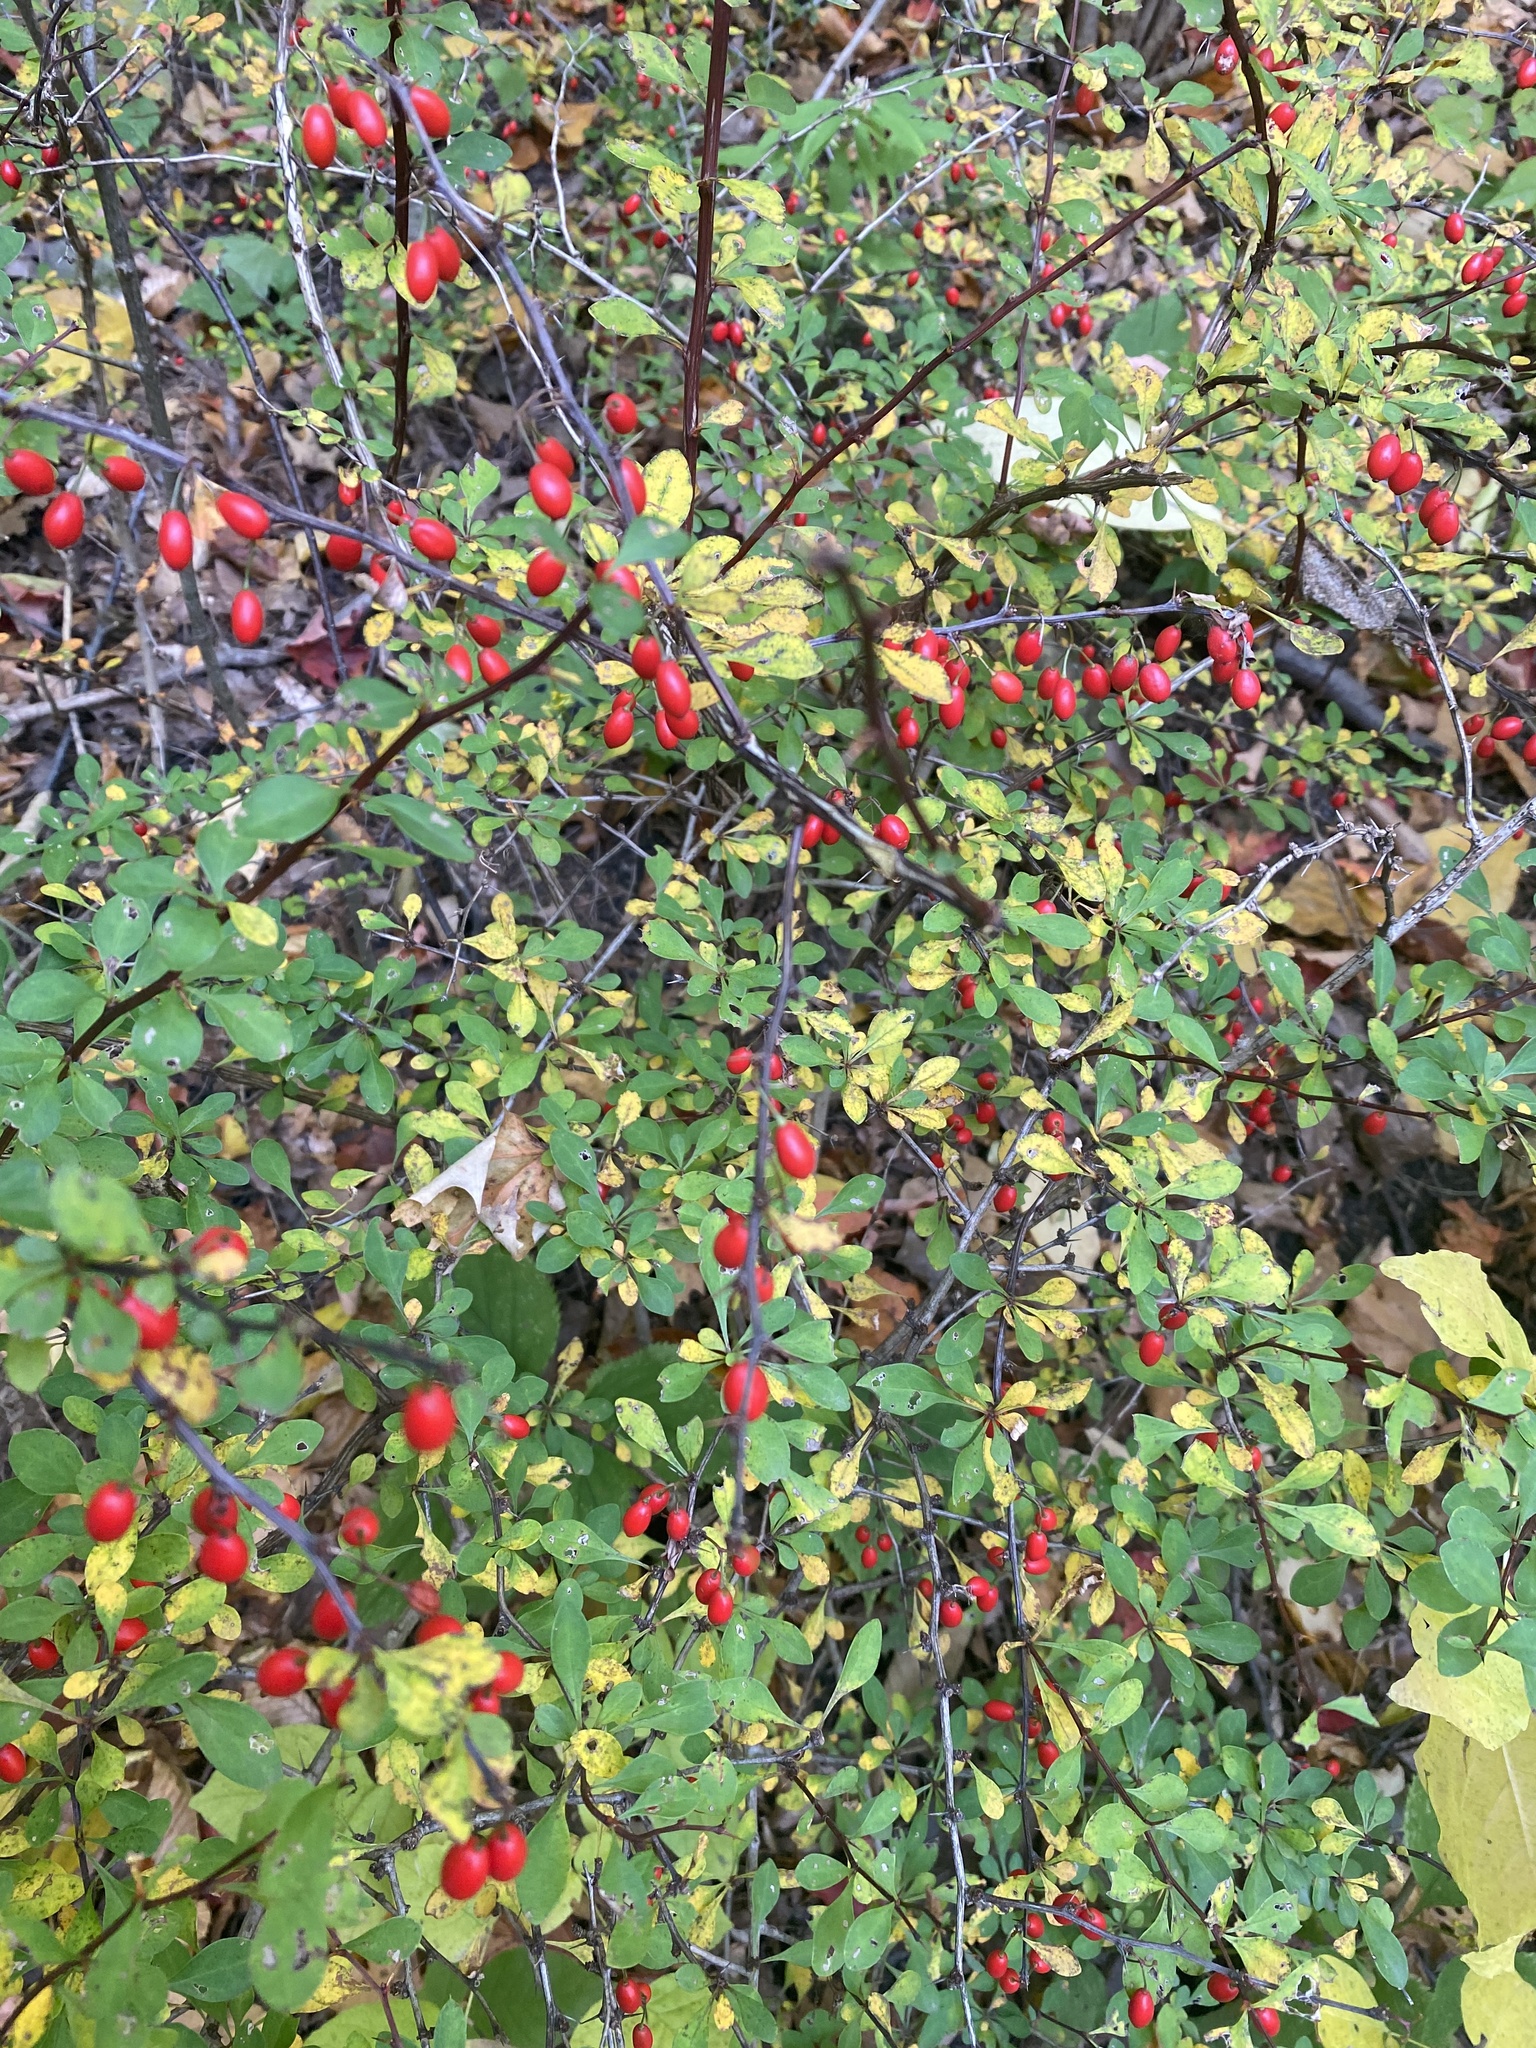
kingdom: Plantae
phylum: Tracheophyta
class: Magnoliopsida
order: Ranunculales
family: Berberidaceae
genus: Berberis
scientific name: Berberis thunbergii
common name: Japanese barberry
